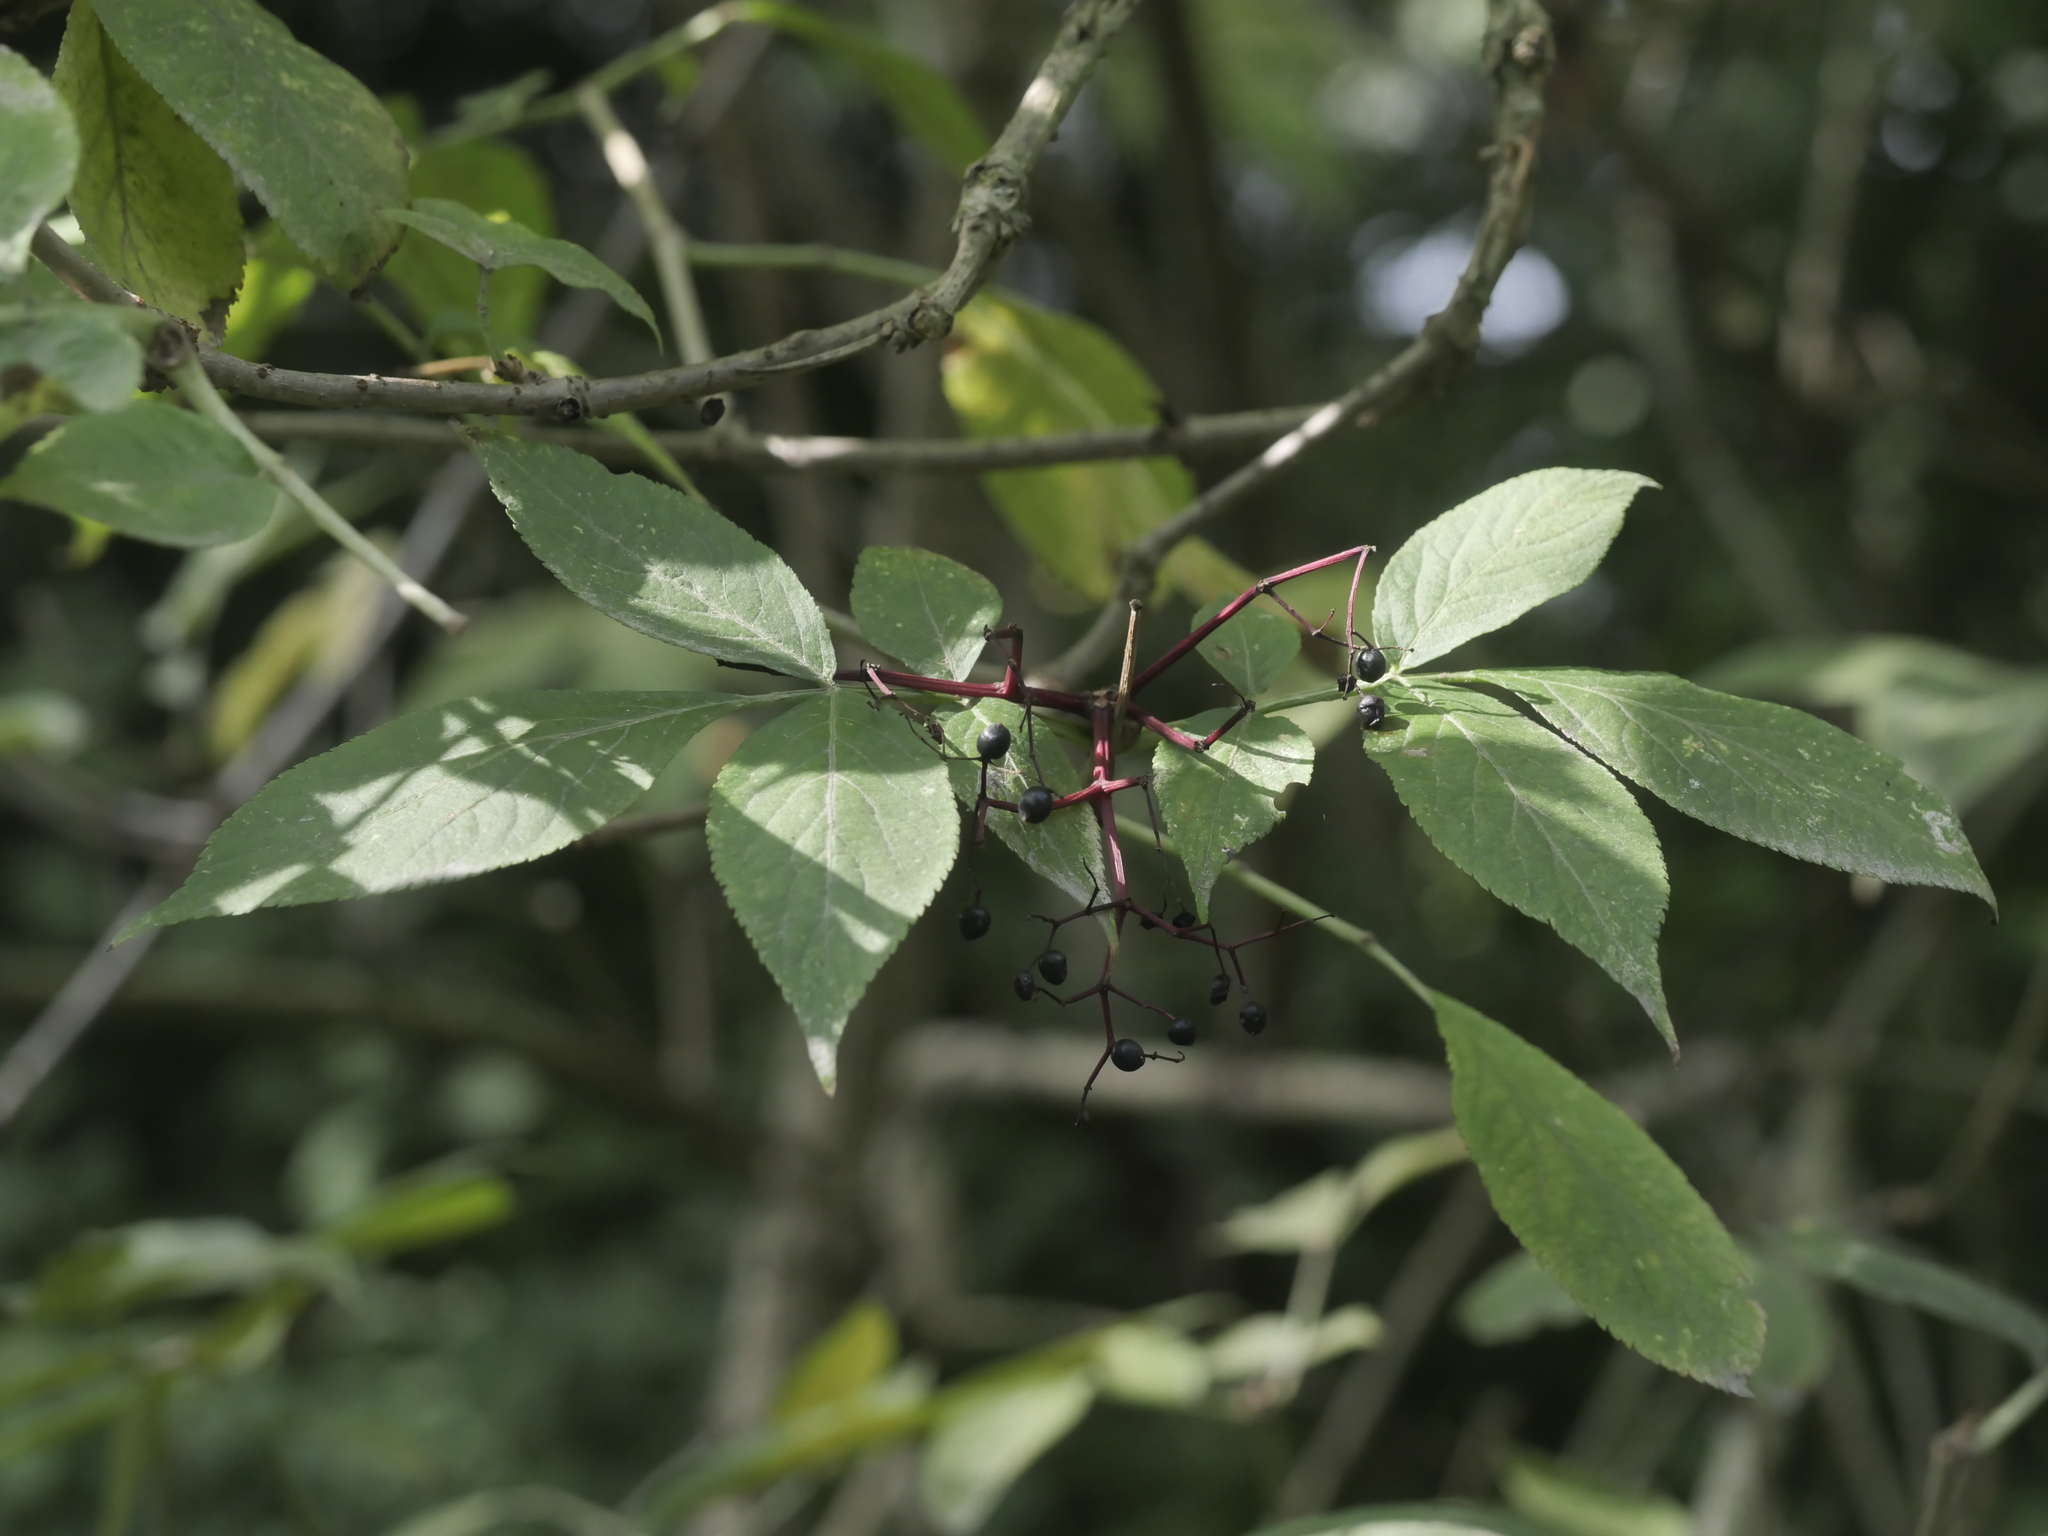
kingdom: Plantae
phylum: Tracheophyta
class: Magnoliopsida
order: Dipsacales
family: Viburnaceae
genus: Sambucus
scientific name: Sambucus nigra
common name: Elder
